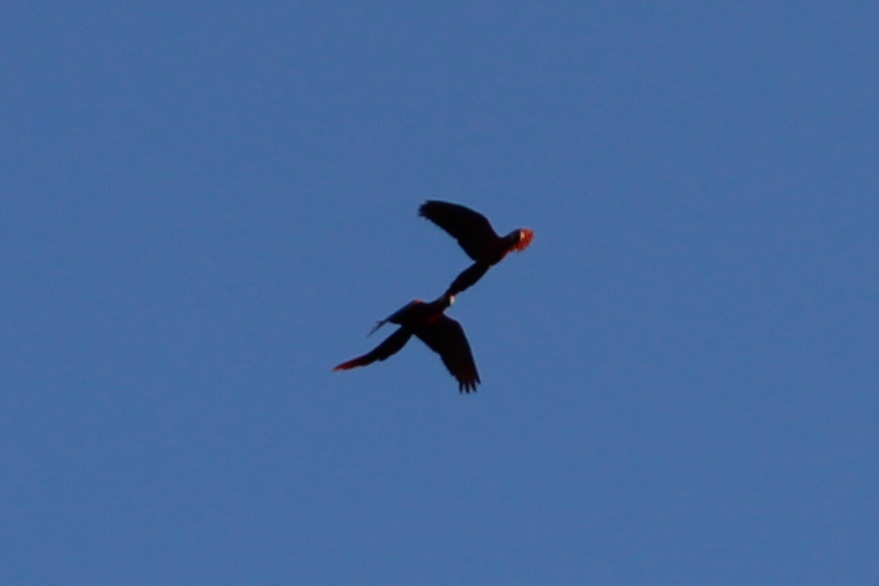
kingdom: Animalia
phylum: Chordata
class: Aves
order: Psittaciformes
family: Psittacidae
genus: Ara
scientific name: Ara macao
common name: Scarlet macaw
